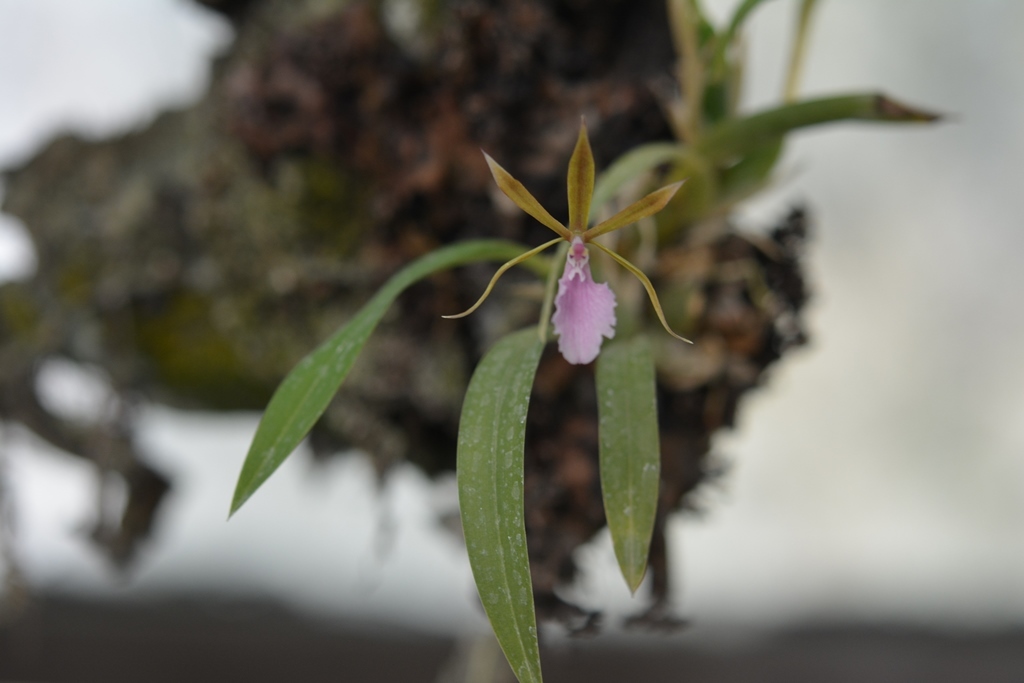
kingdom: Plantae
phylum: Tracheophyta
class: Liliopsida
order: Asparagales
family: Orchidaceae
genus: Rhynchostele
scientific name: Rhynchostele stellata
